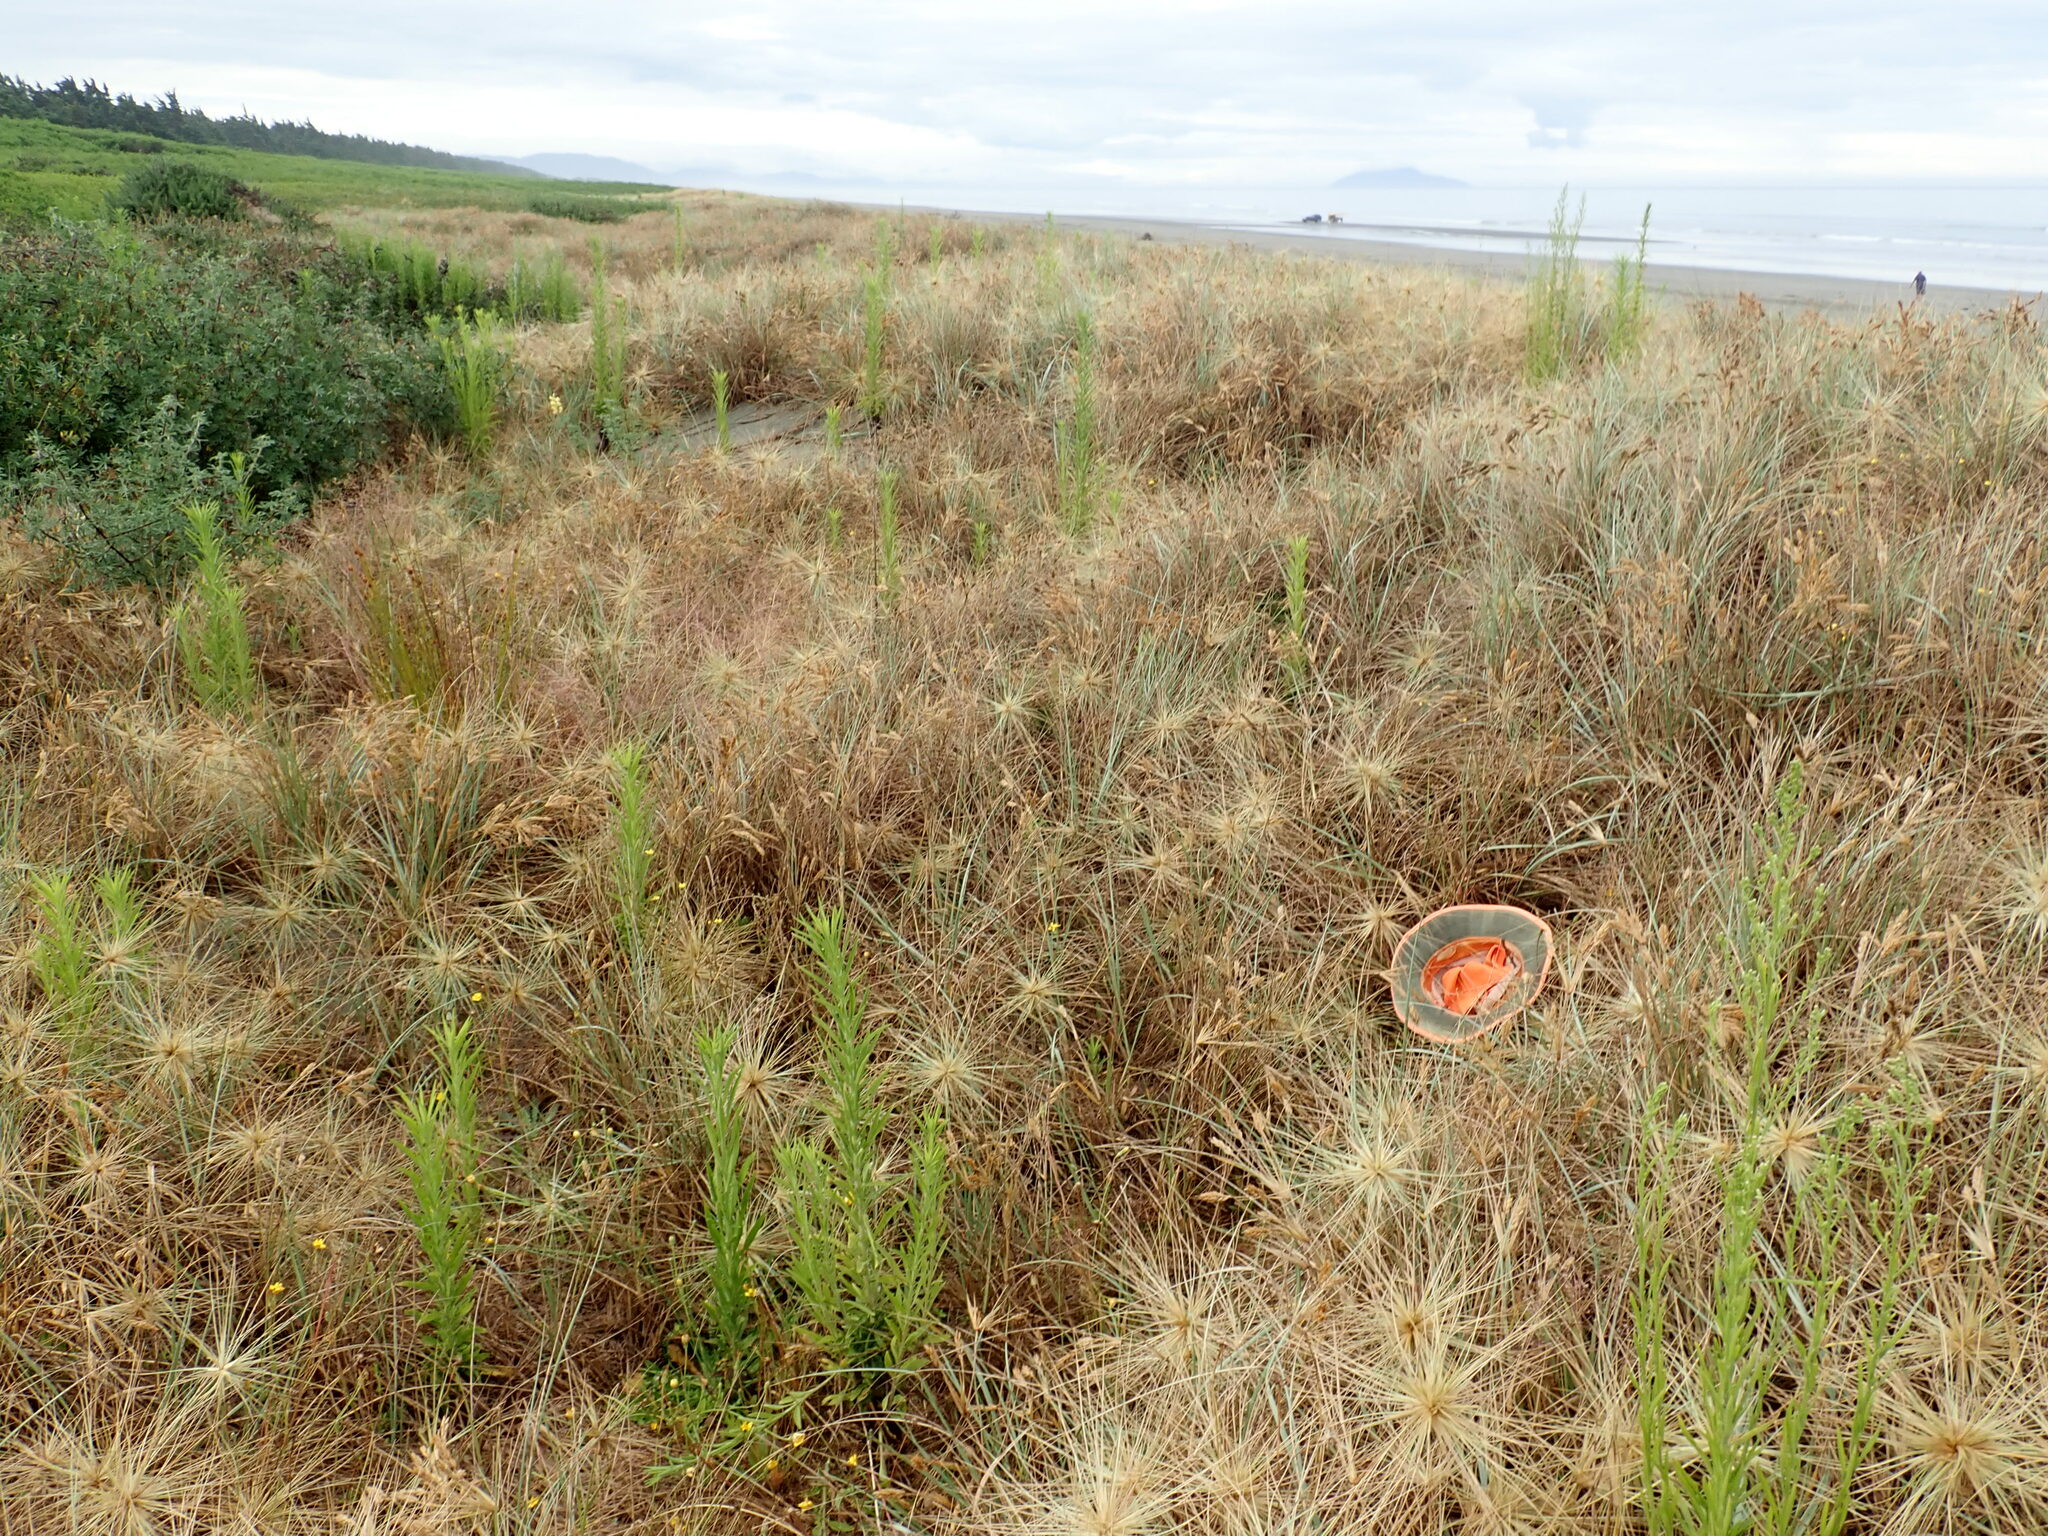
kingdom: Fungi
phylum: Basidiomycota
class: Agaricomycetes
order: Agaricales
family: Marasmiaceae
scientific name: Marasmiaceae
